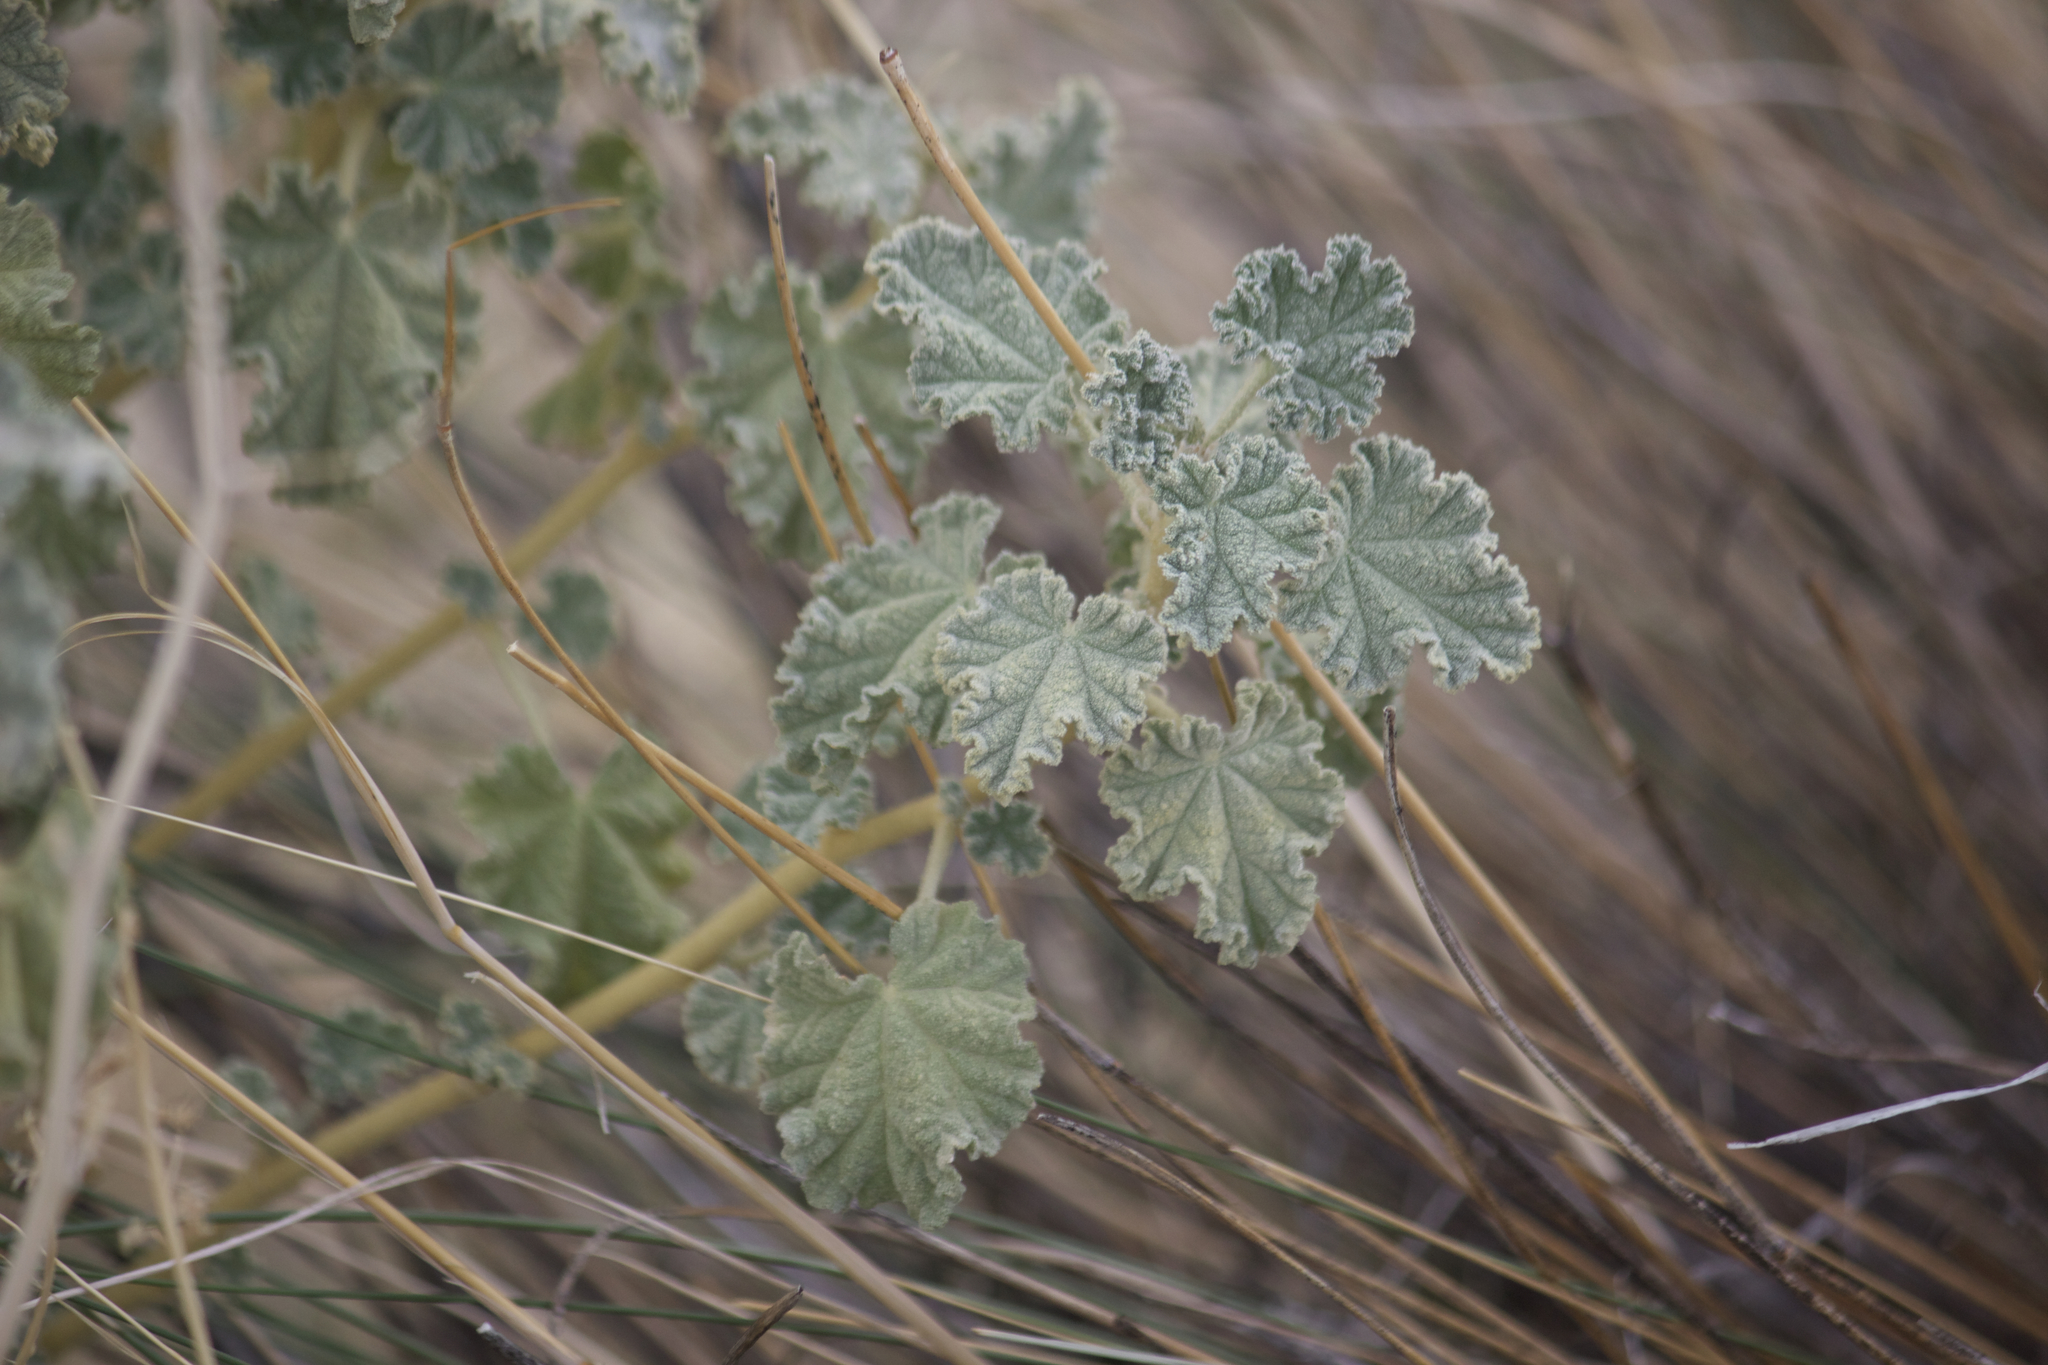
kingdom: Plantae
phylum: Tracheophyta
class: Magnoliopsida
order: Malvales
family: Malvaceae
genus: Sphaeralcea
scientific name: Sphaeralcea ambigua
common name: Apricot globe-mallow
